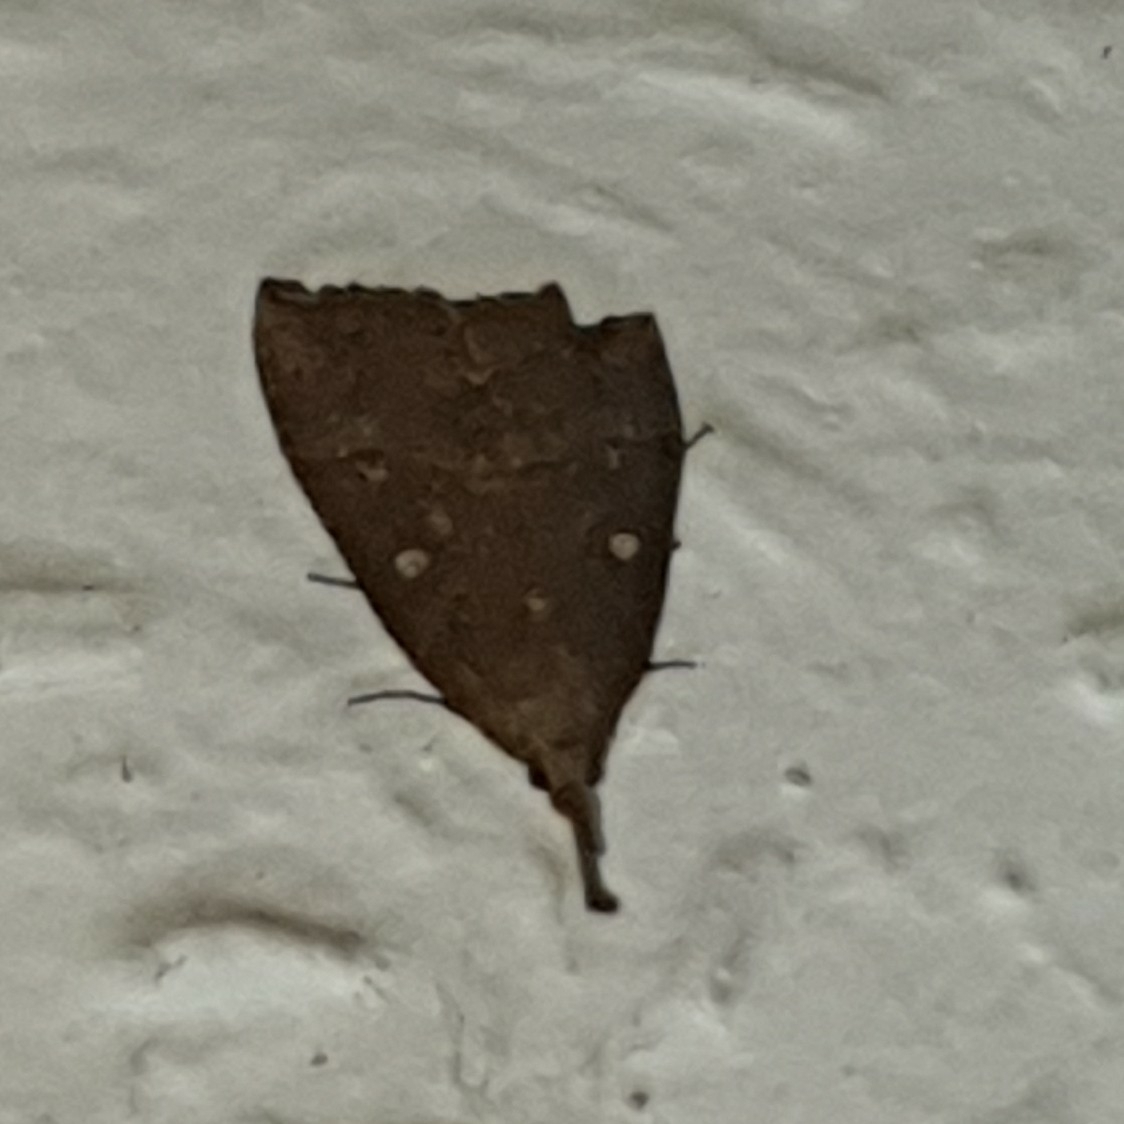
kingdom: Animalia
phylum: Arthropoda
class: Insecta
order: Lepidoptera
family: Erebidae
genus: Hypena
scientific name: Hypena rostralis
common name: Buttoned snout
